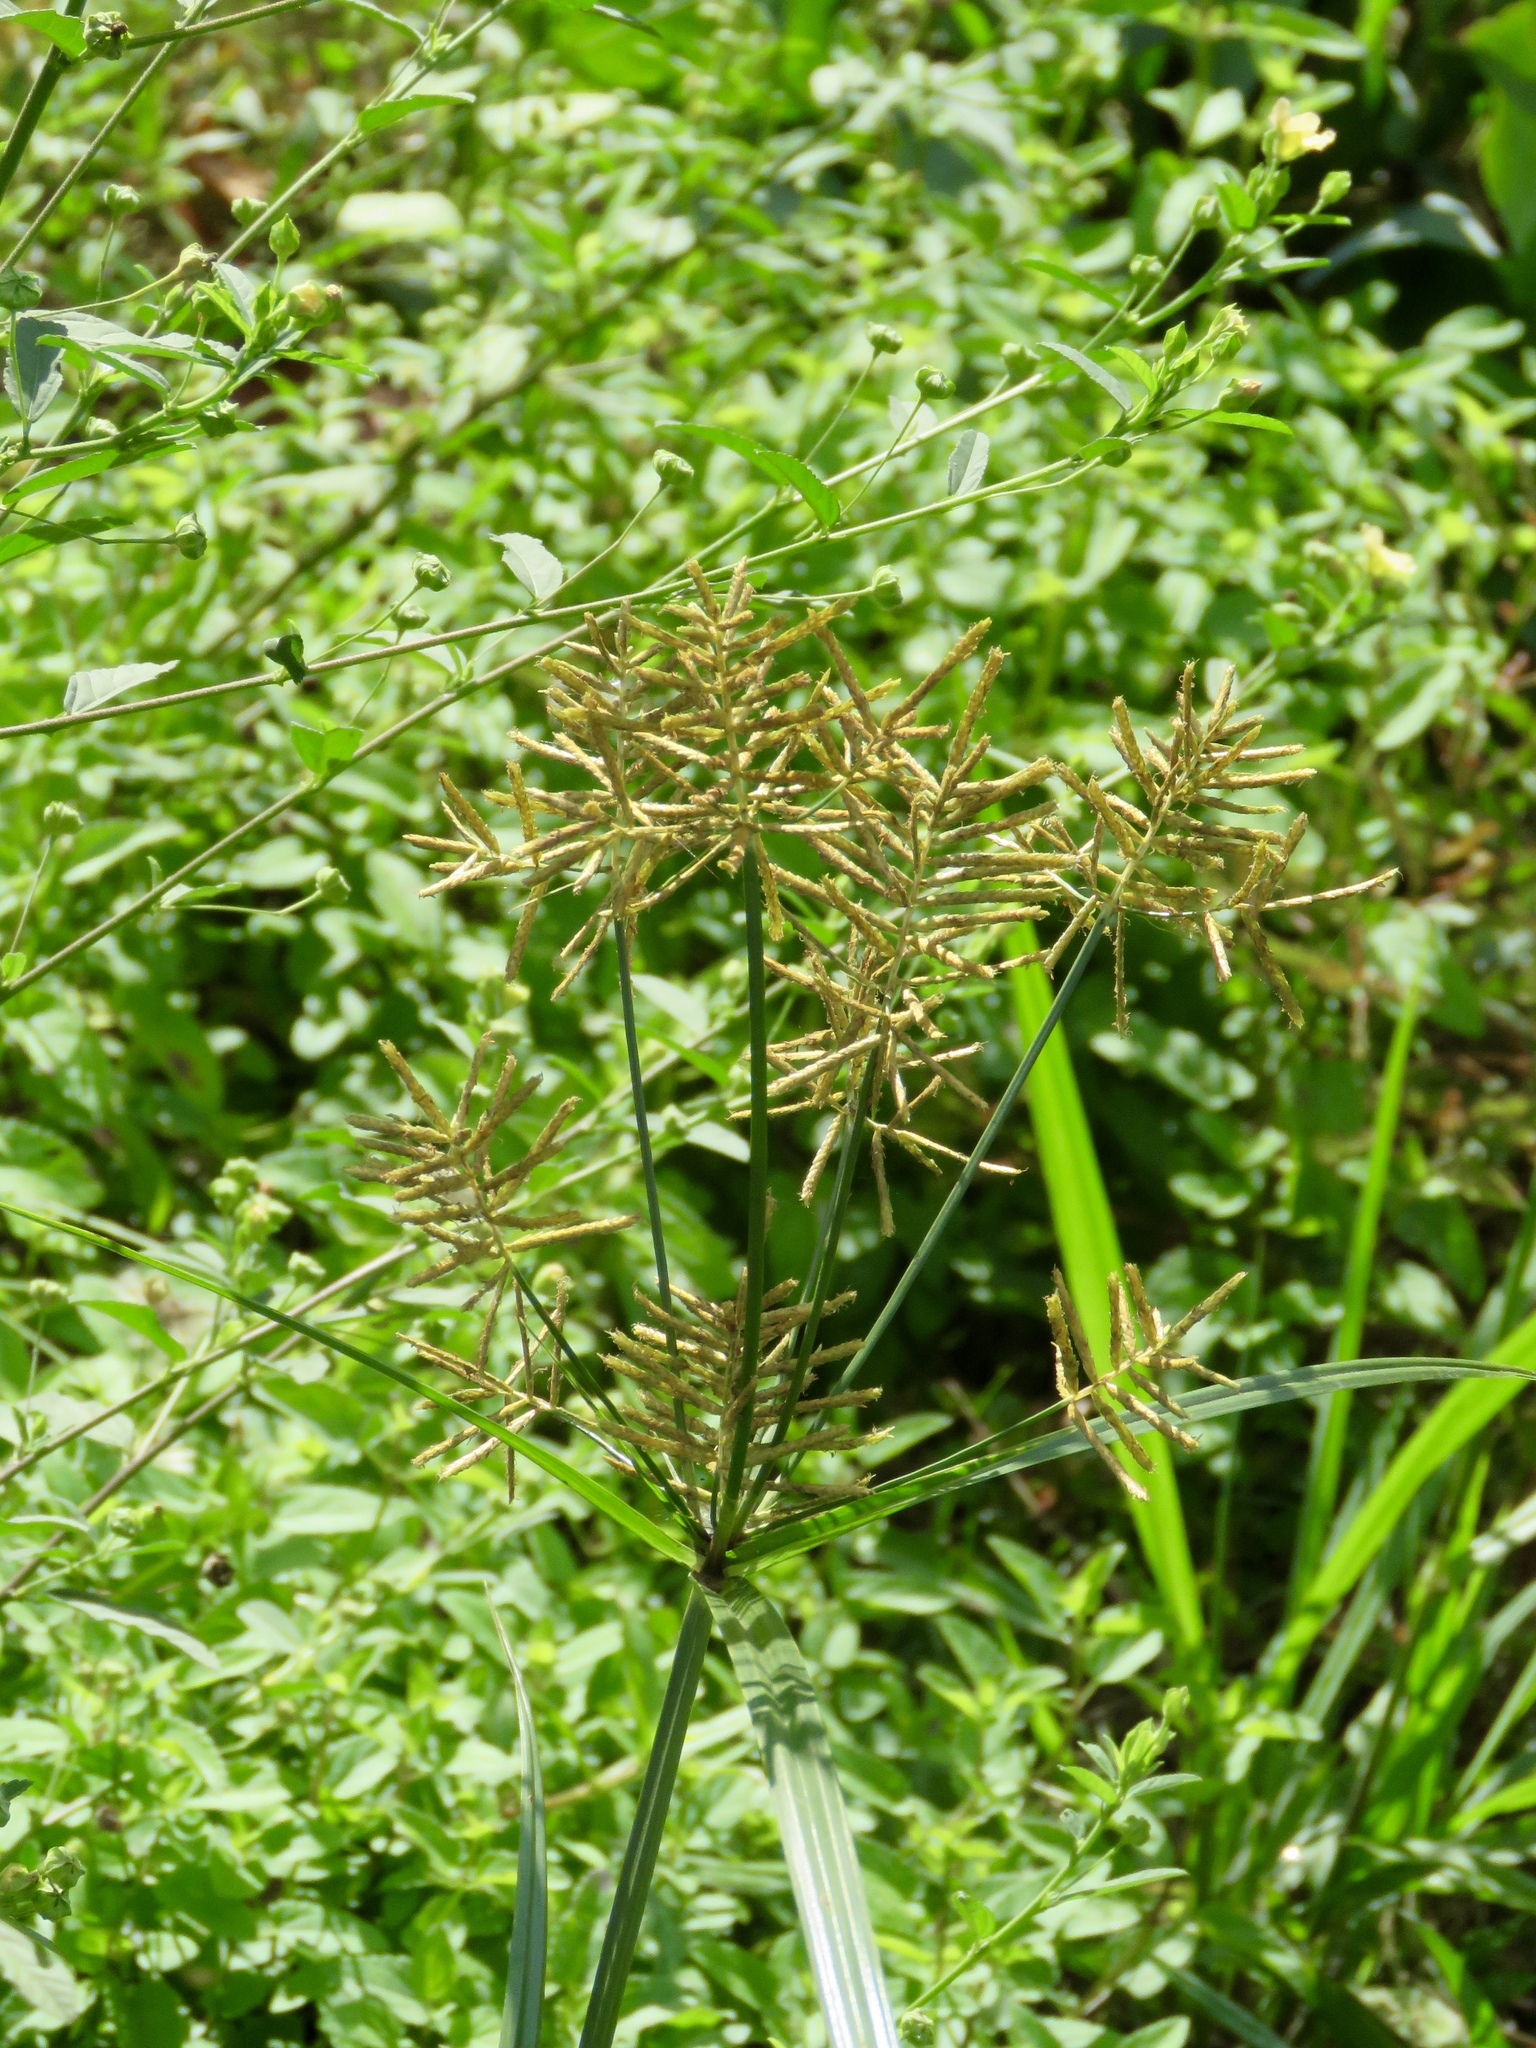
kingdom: Plantae
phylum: Tracheophyta
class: Liliopsida
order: Poales
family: Cyperaceae
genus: Cyperus
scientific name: Cyperus esculentus
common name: Yellow nutsedge
